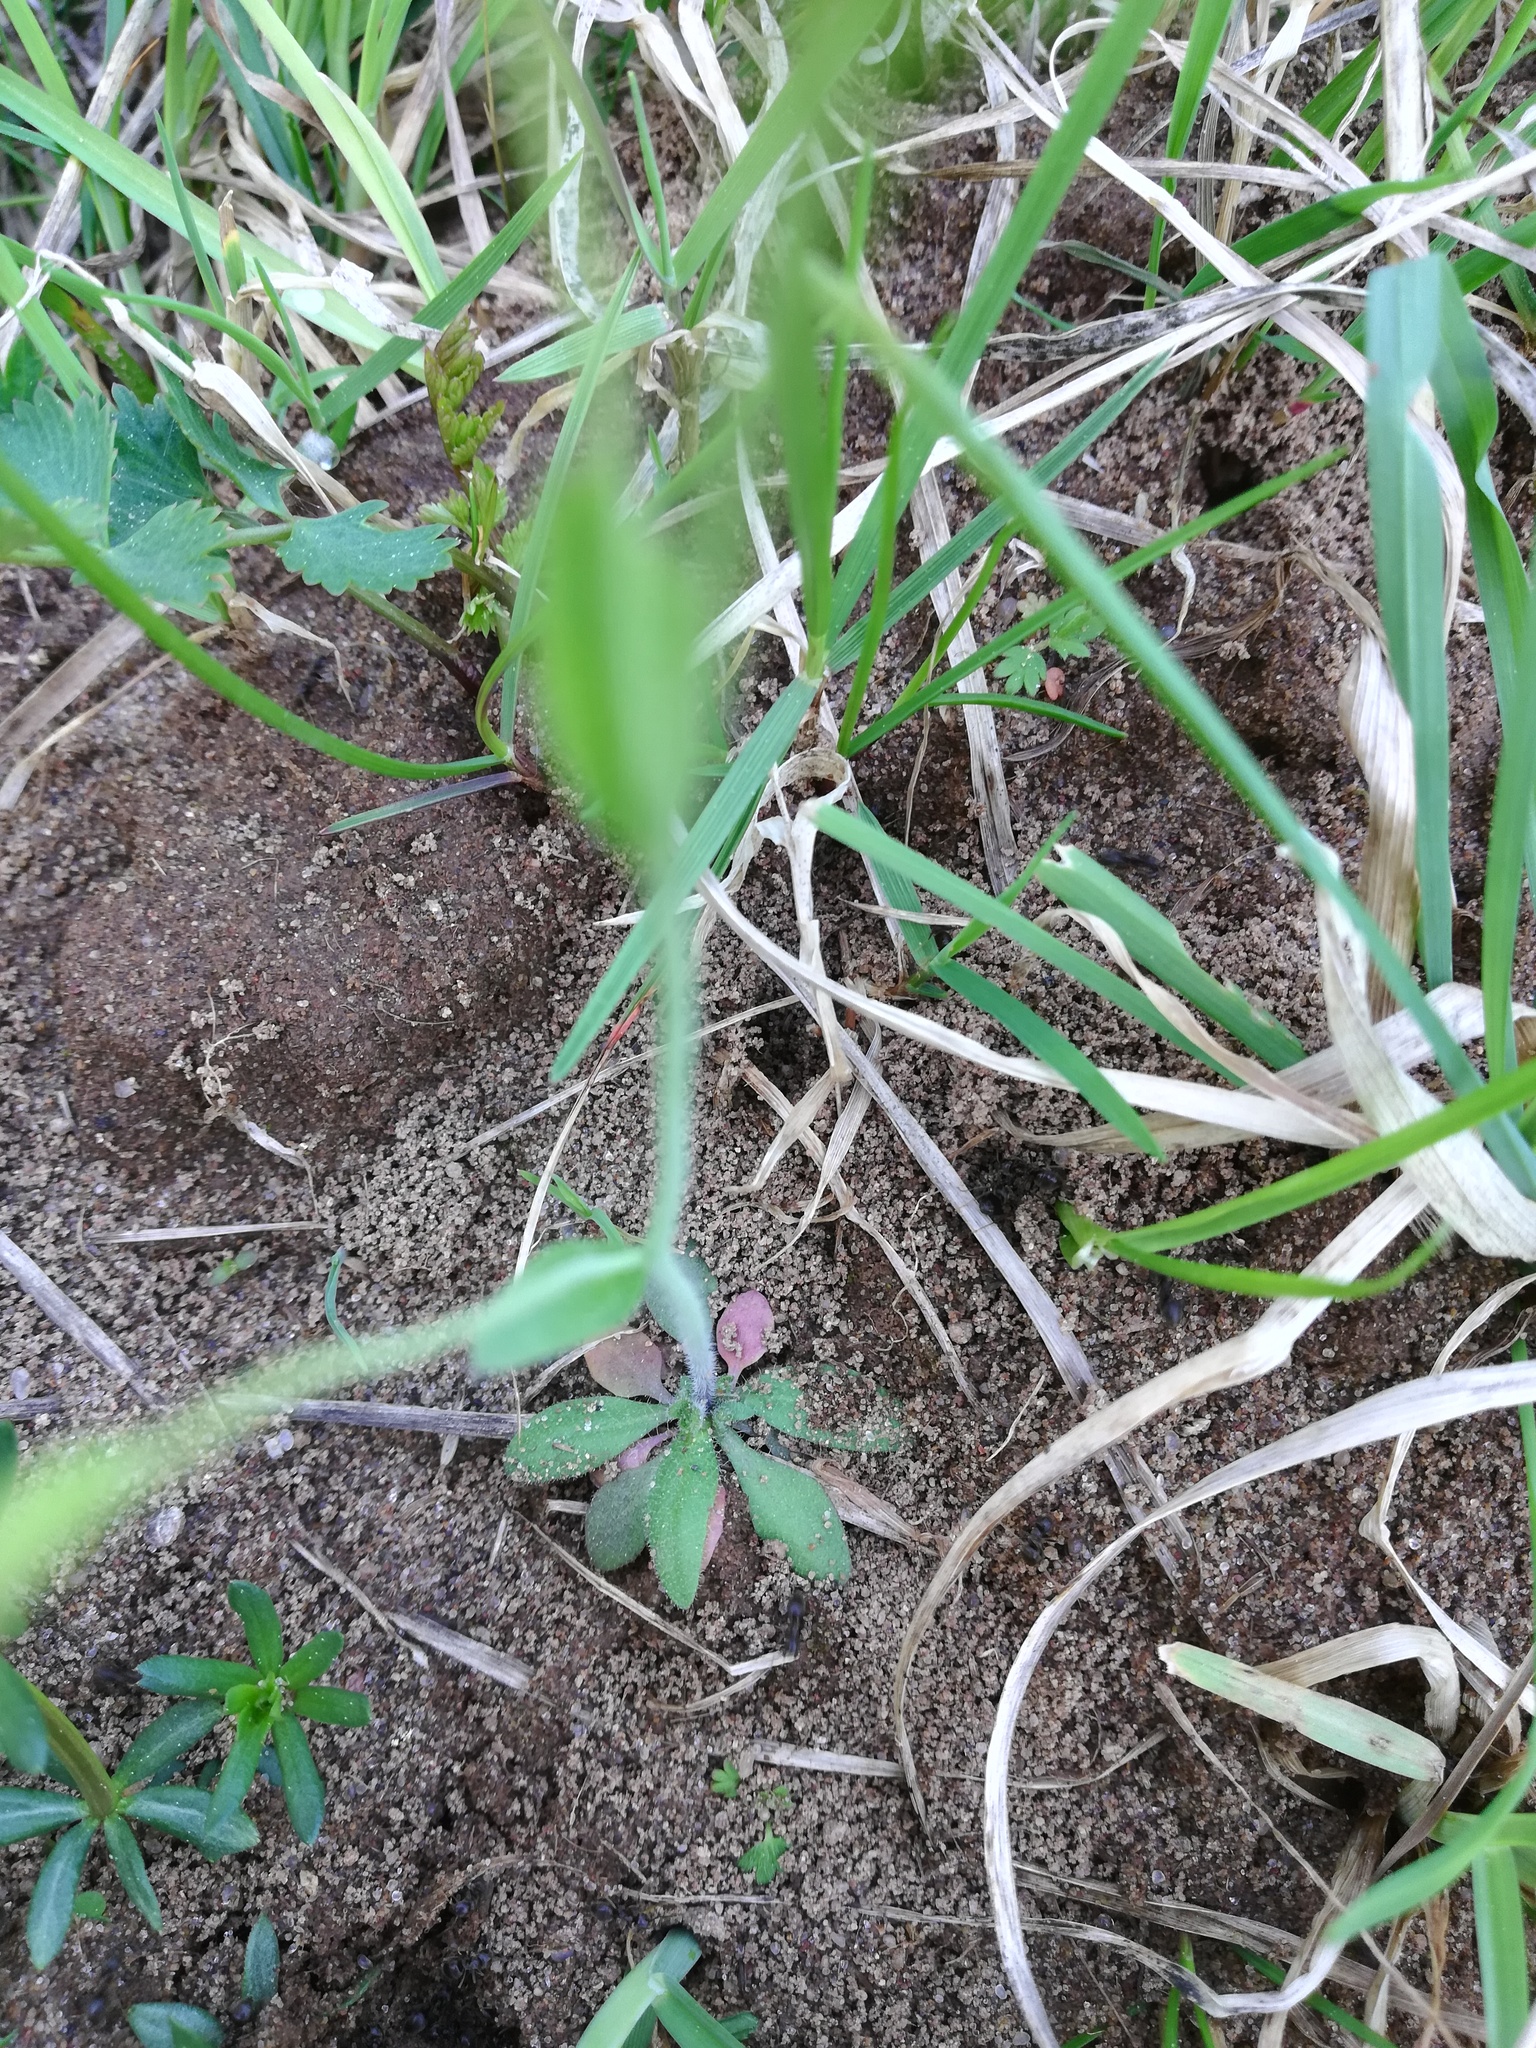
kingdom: Plantae
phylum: Tracheophyta
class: Magnoliopsida
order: Brassicales
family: Brassicaceae
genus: Arabidopsis
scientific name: Arabidopsis thaliana
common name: Thale cress
